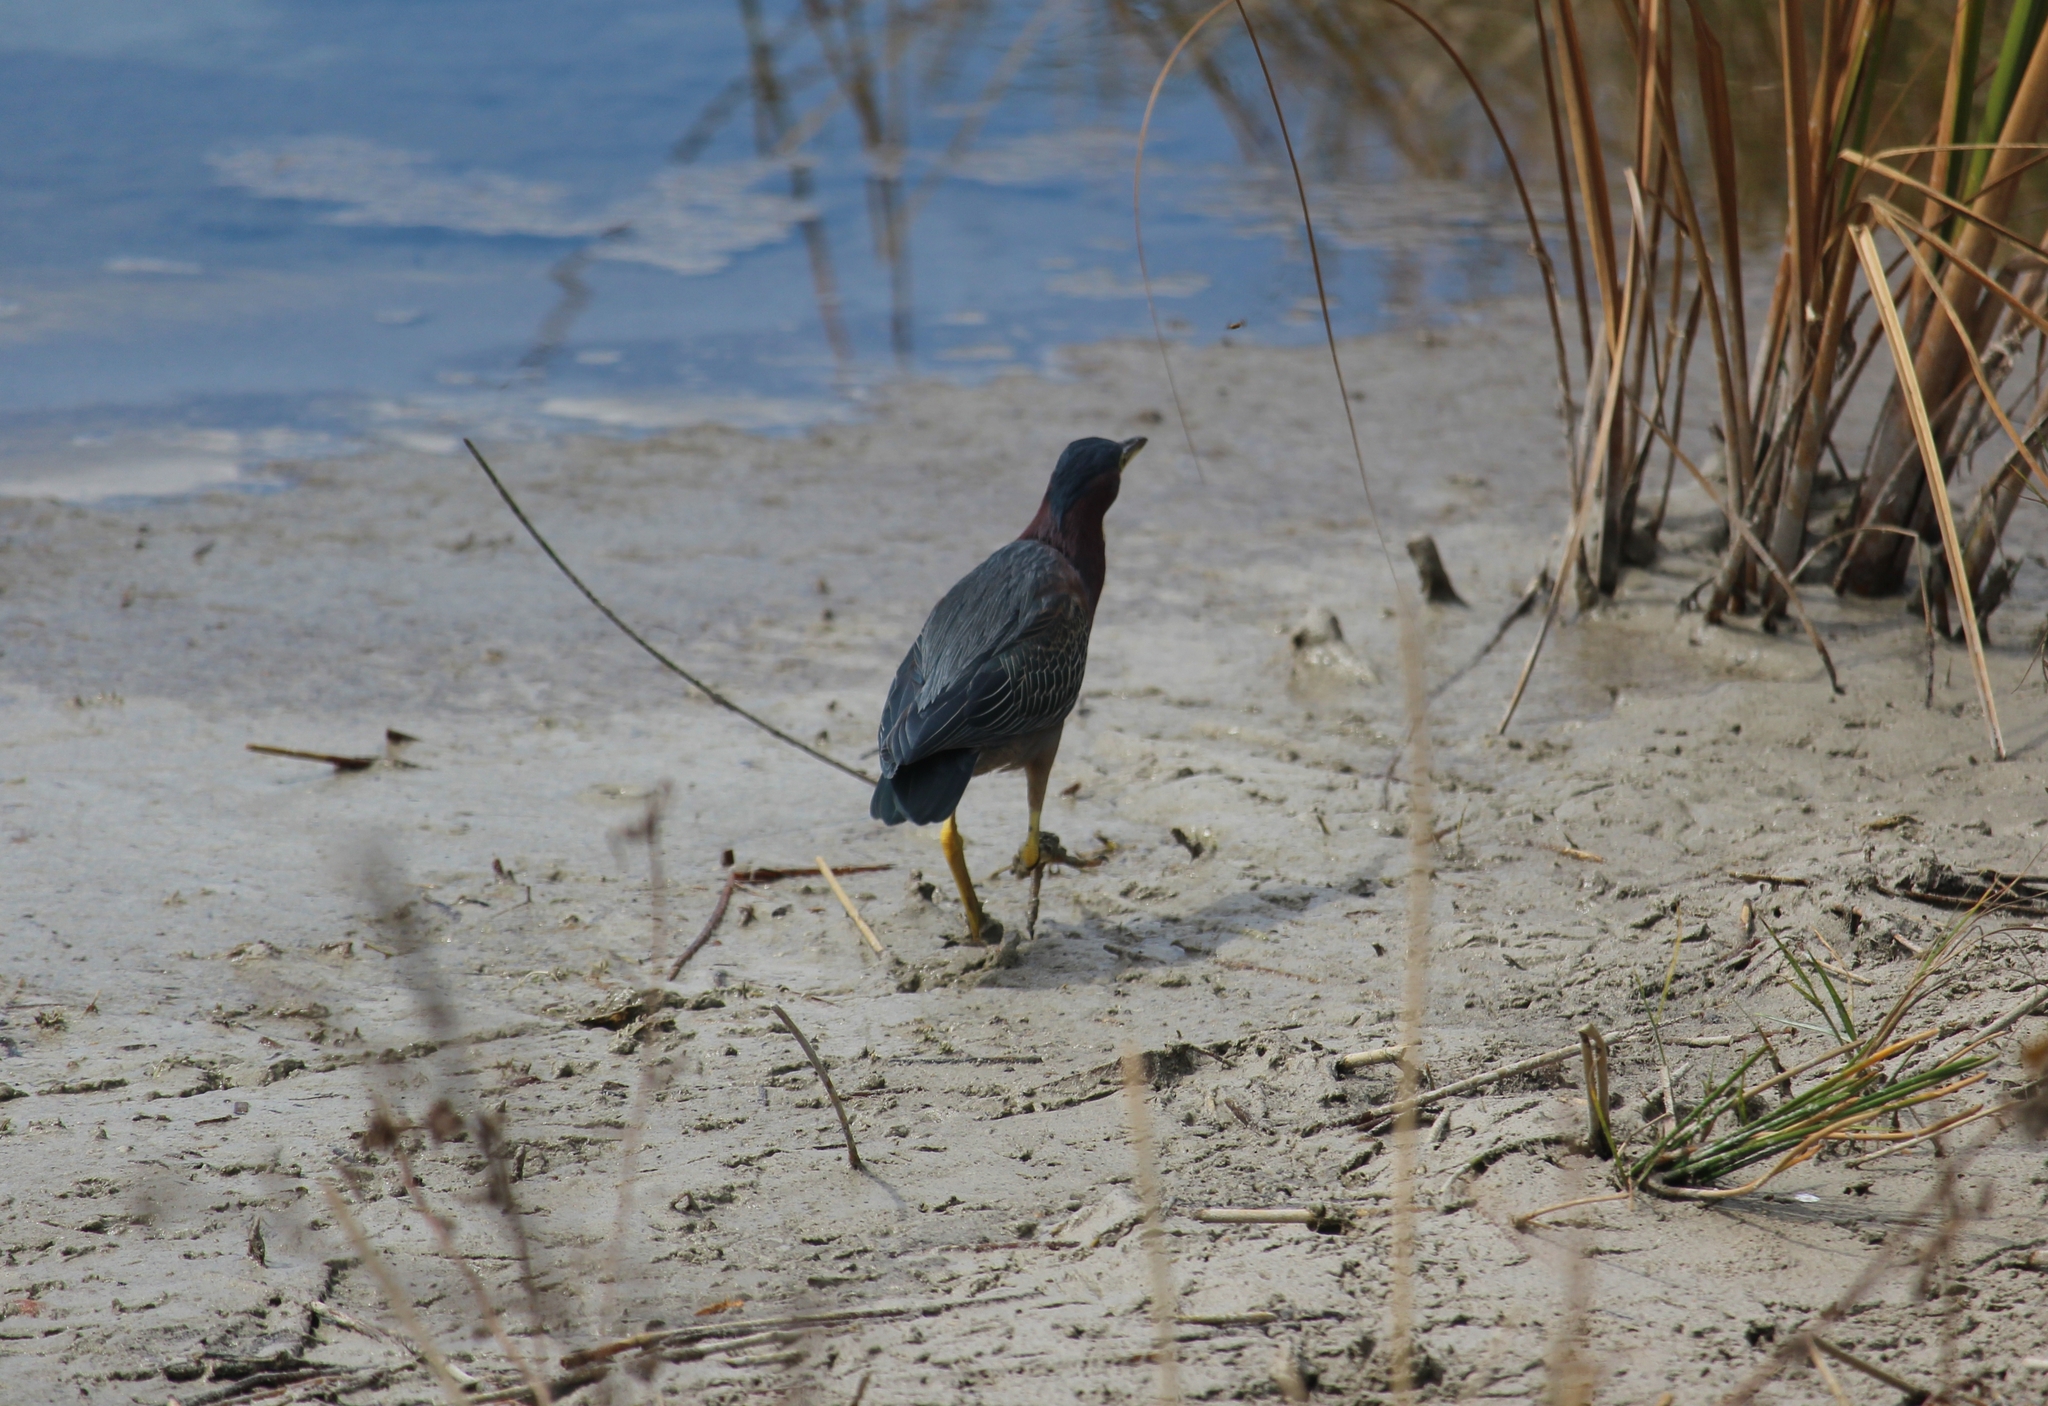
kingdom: Animalia
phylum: Chordata
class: Aves
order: Pelecaniformes
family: Ardeidae
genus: Butorides
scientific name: Butorides virescens
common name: Green heron
